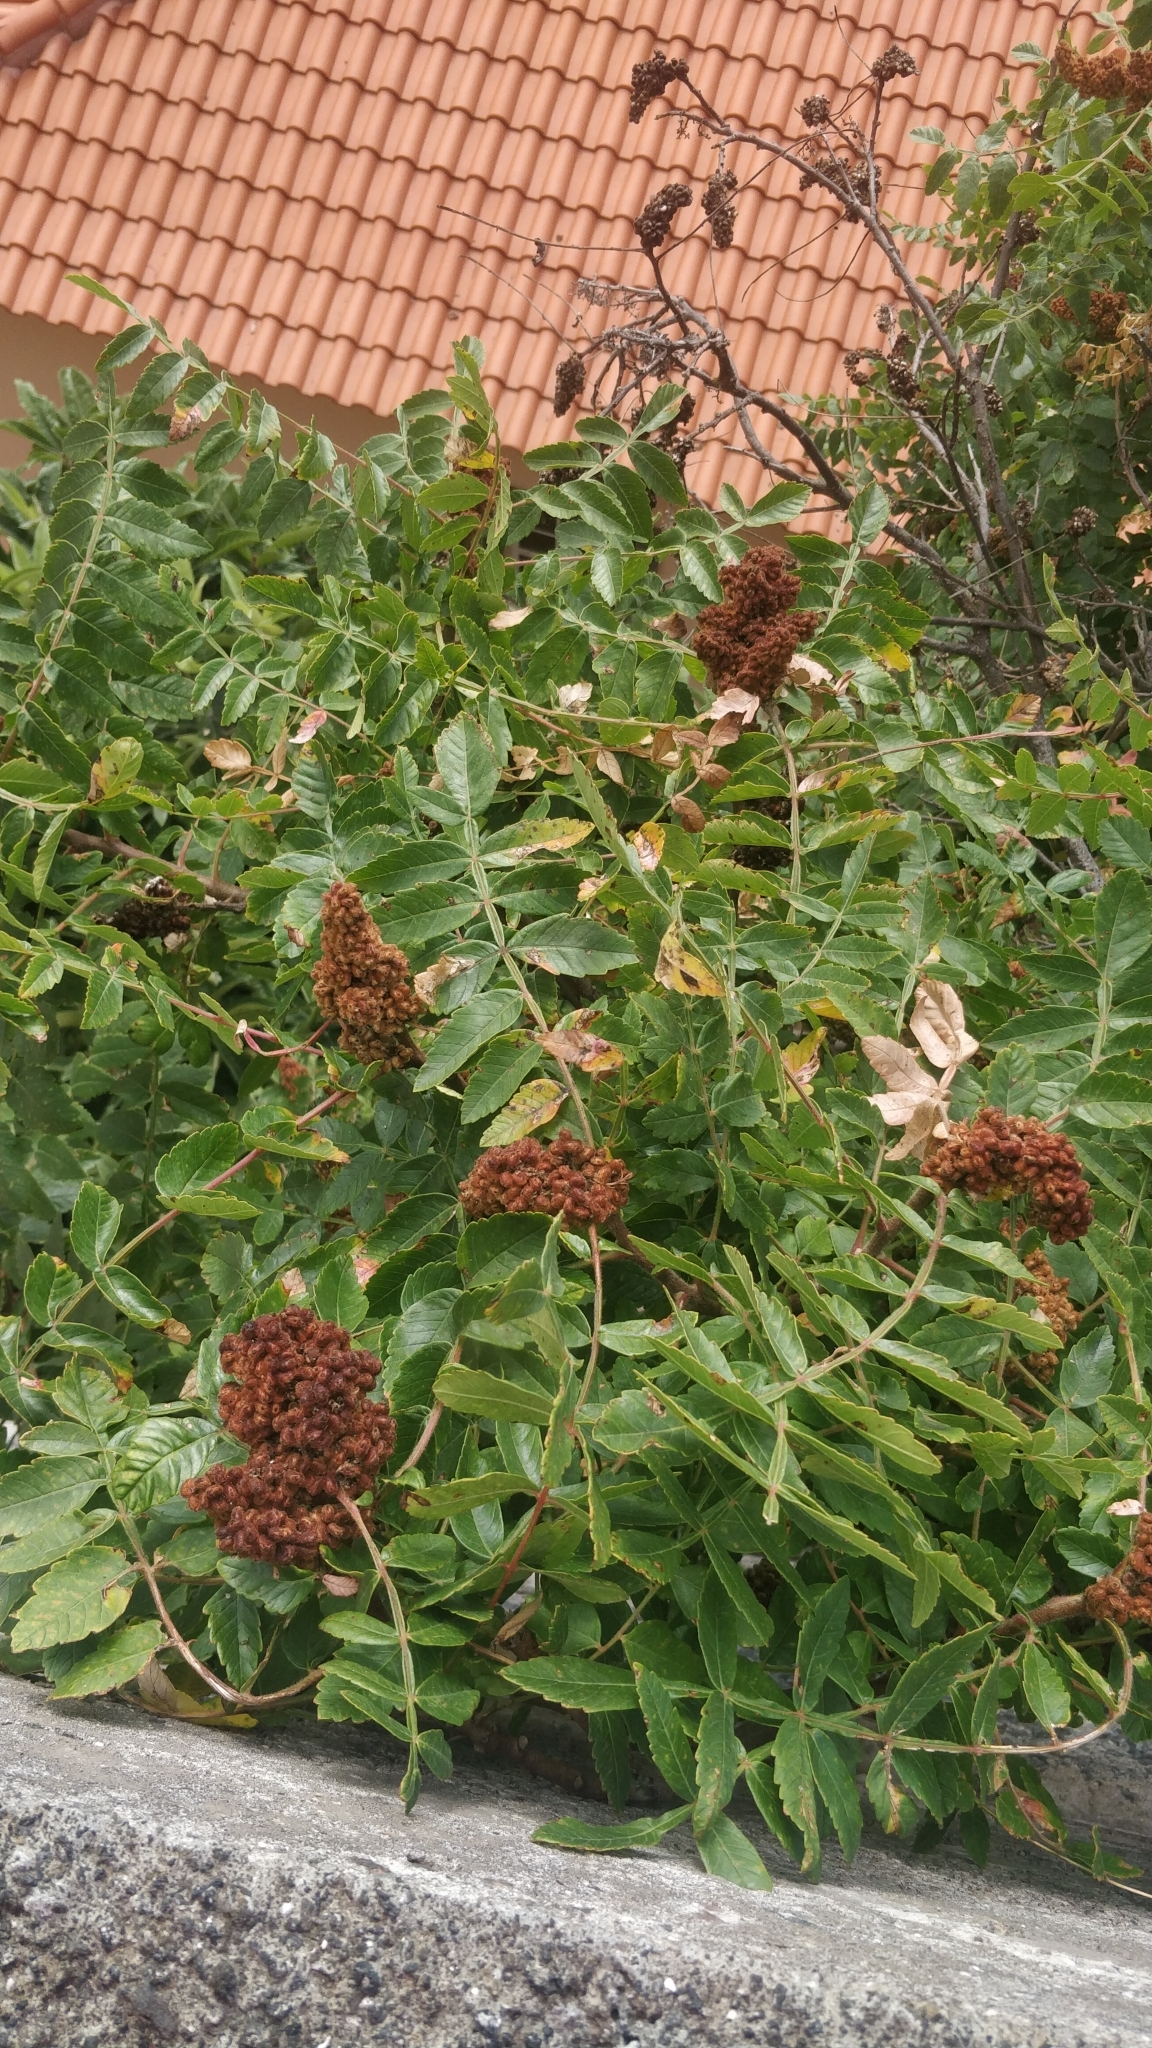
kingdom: Plantae
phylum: Tracheophyta
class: Magnoliopsida
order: Sapindales
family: Anacardiaceae
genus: Rhus
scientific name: Rhus coriaria
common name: Tanner's sumach
